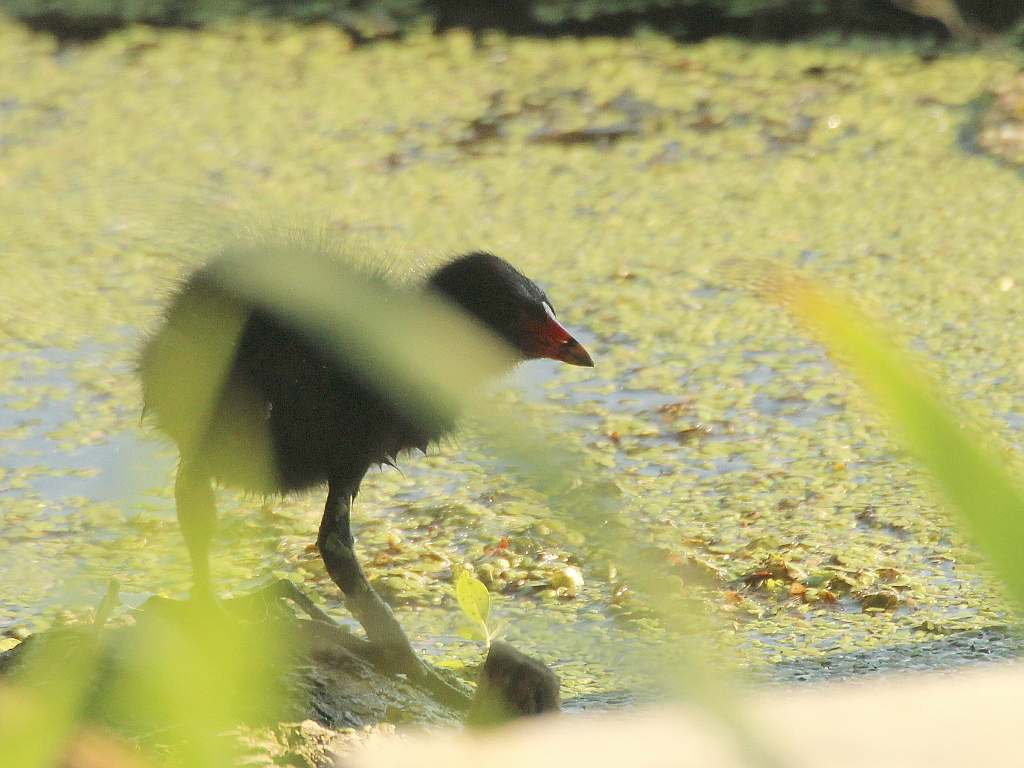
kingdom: Animalia
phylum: Chordata
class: Aves
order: Gruiformes
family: Rallidae
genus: Gallinula
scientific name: Gallinula chloropus
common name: Common moorhen
